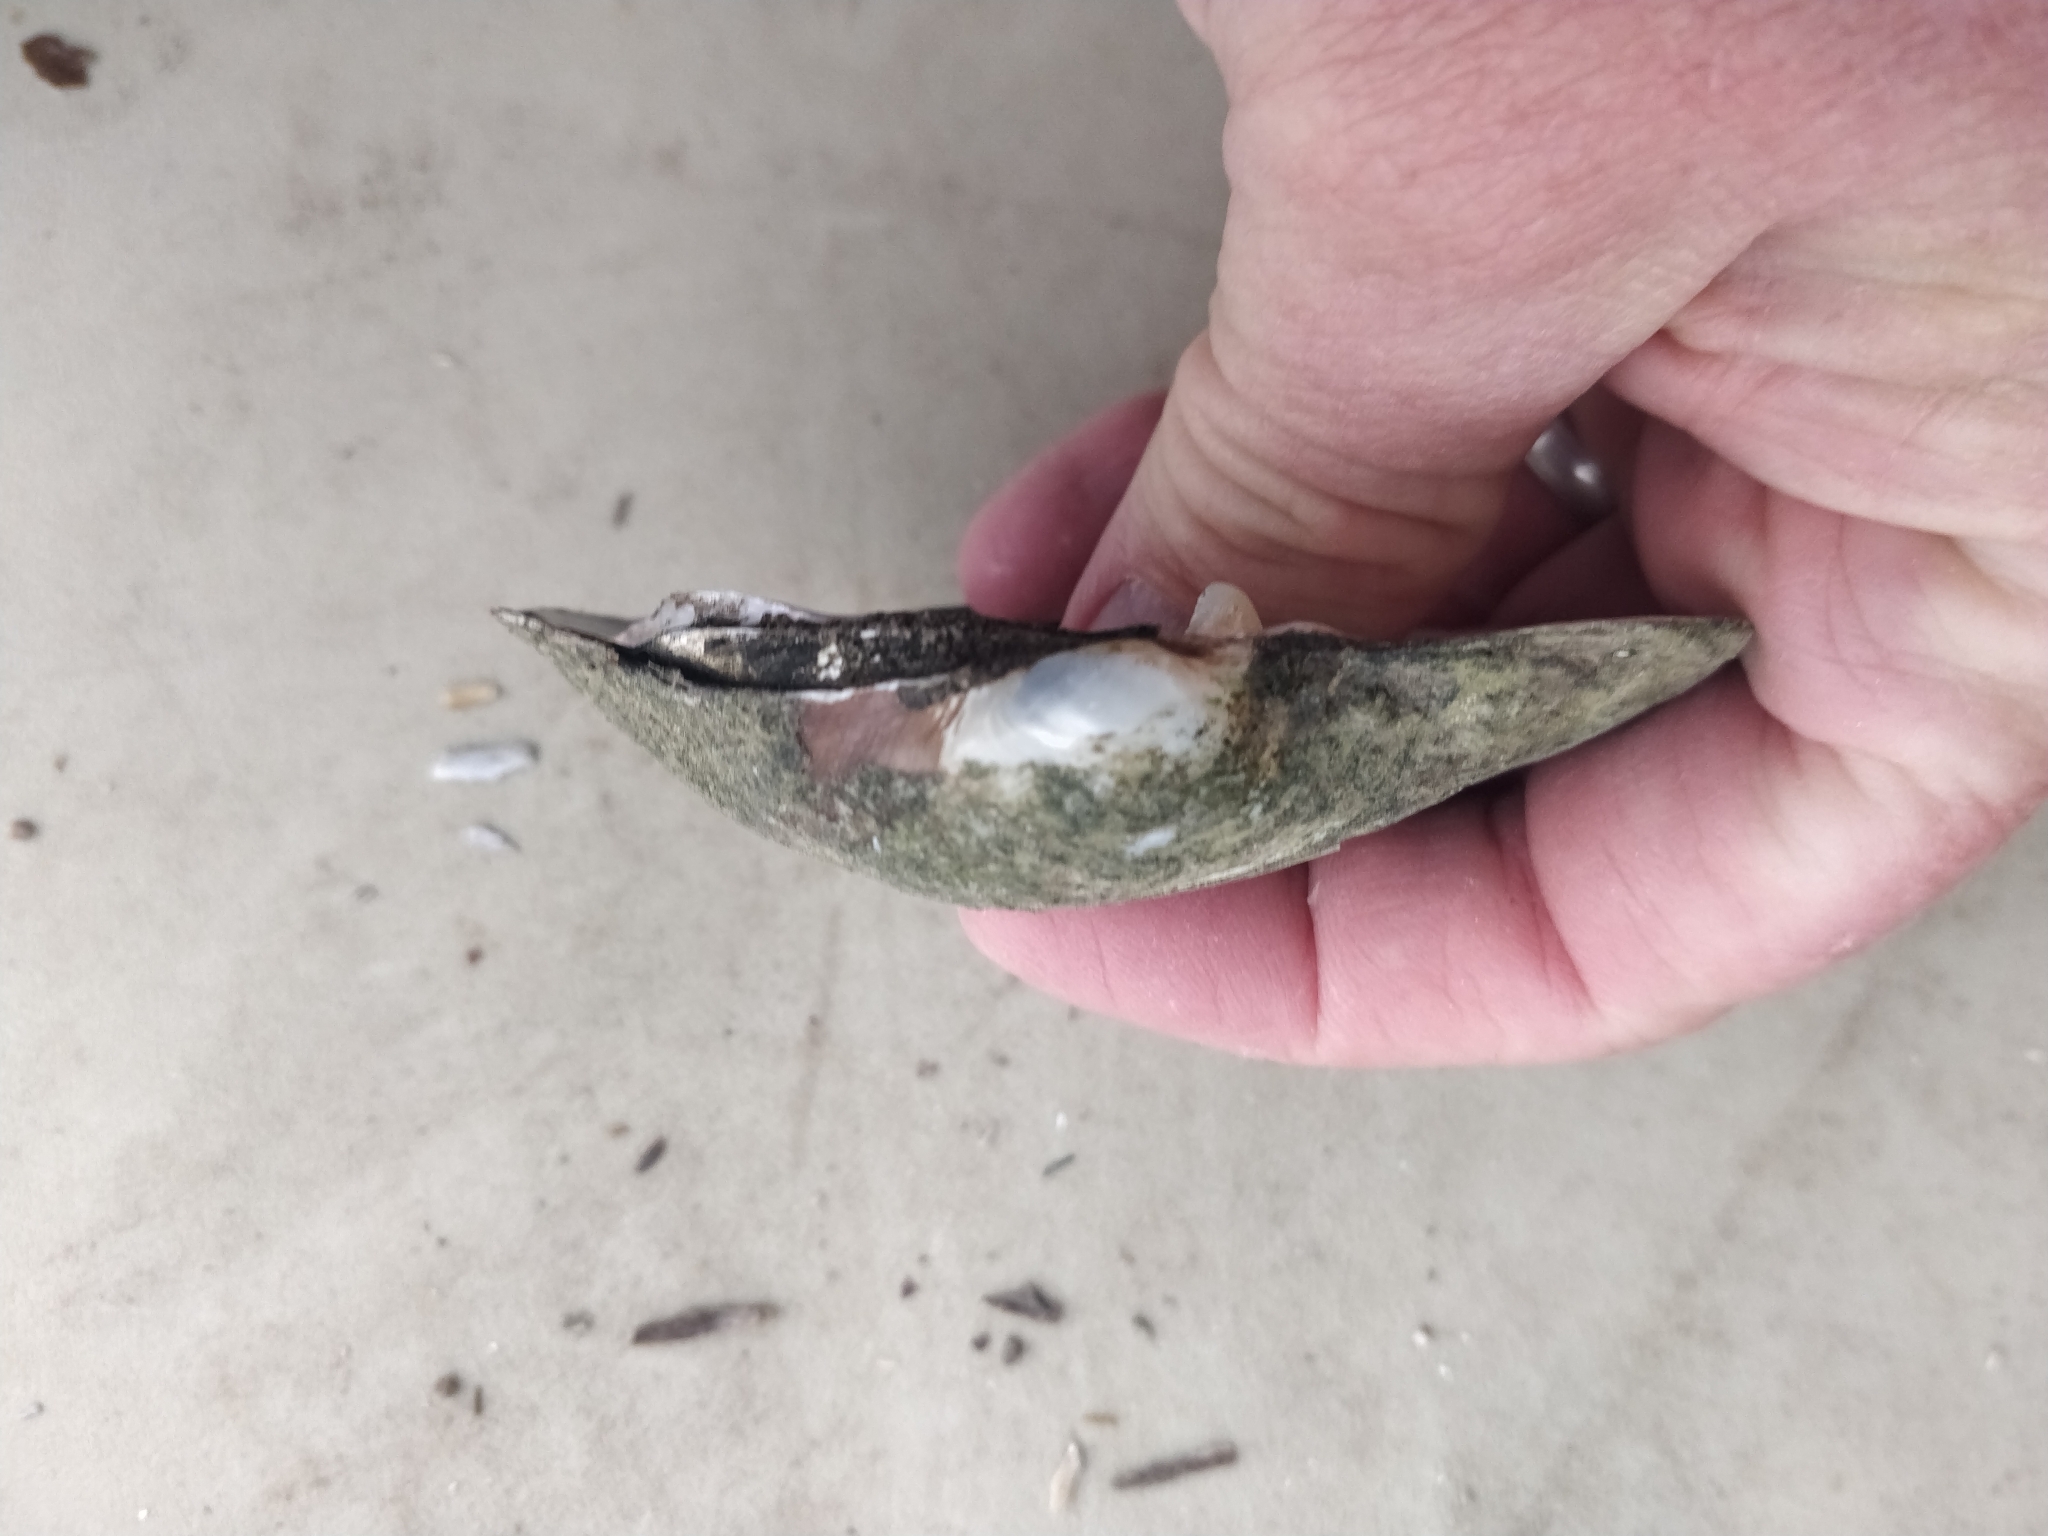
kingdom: Animalia
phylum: Mollusca
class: Bivalvia
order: Unionida
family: Unionidae
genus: Lampsilis
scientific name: Lampsilis cardium
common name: Plain pocketbook
